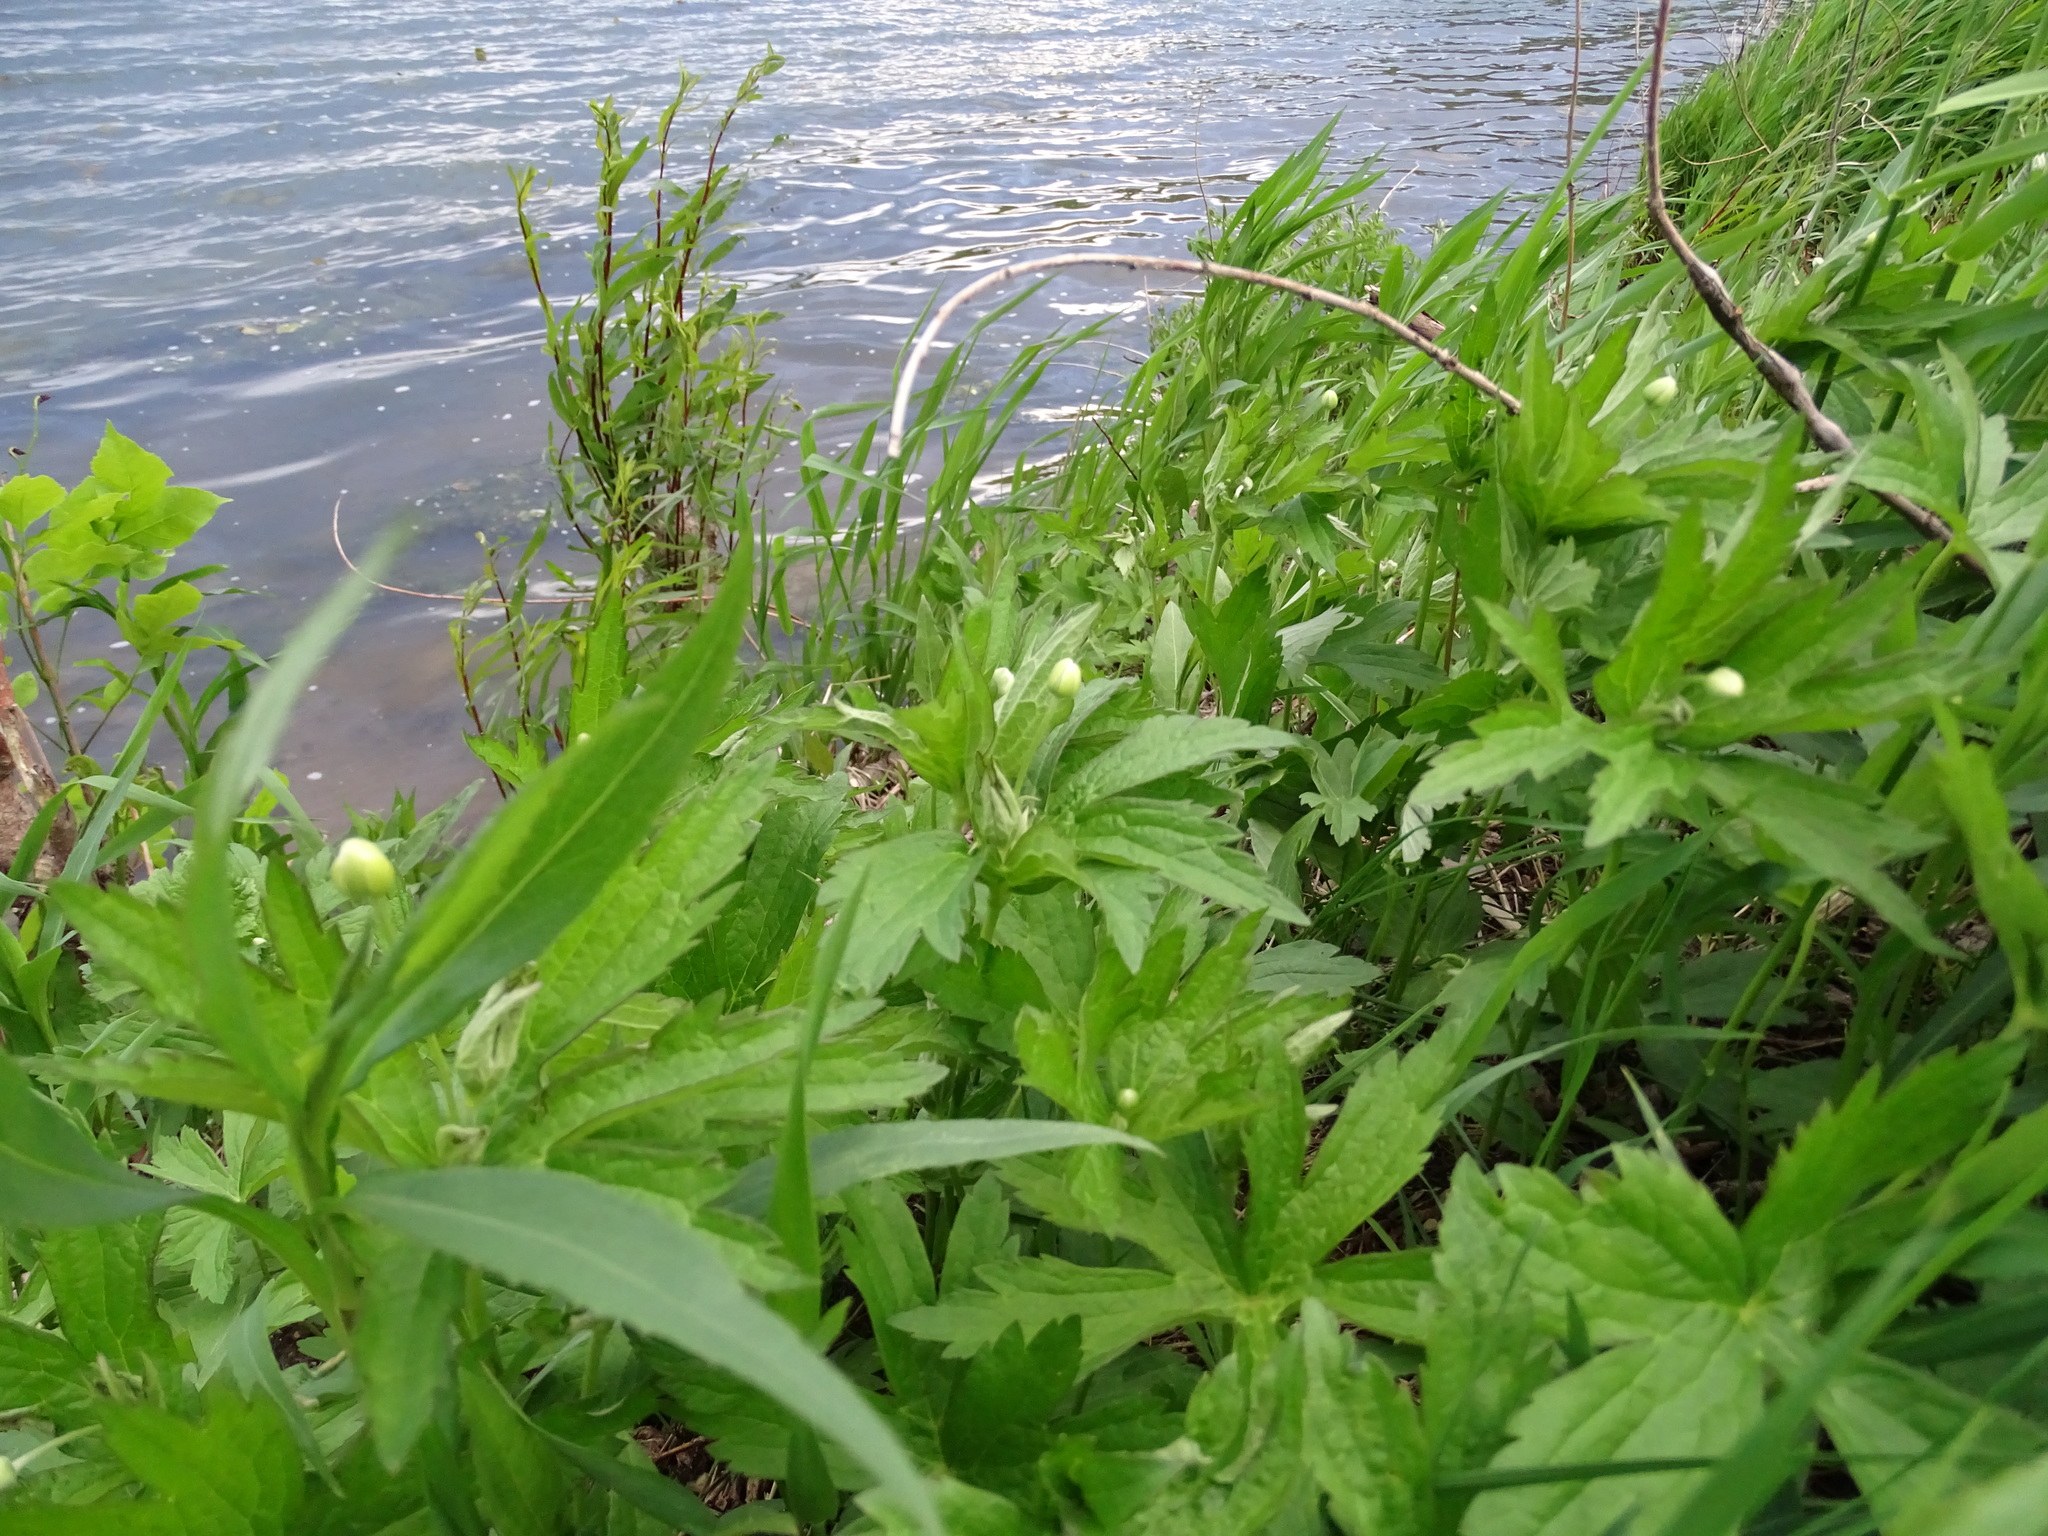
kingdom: Plantae
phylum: Tracheophyta
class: Magnoliopsida
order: Ranunculales
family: Ranunculaceae
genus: Anemonastrum
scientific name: Anemonastrum canadense
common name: Canada anemone
